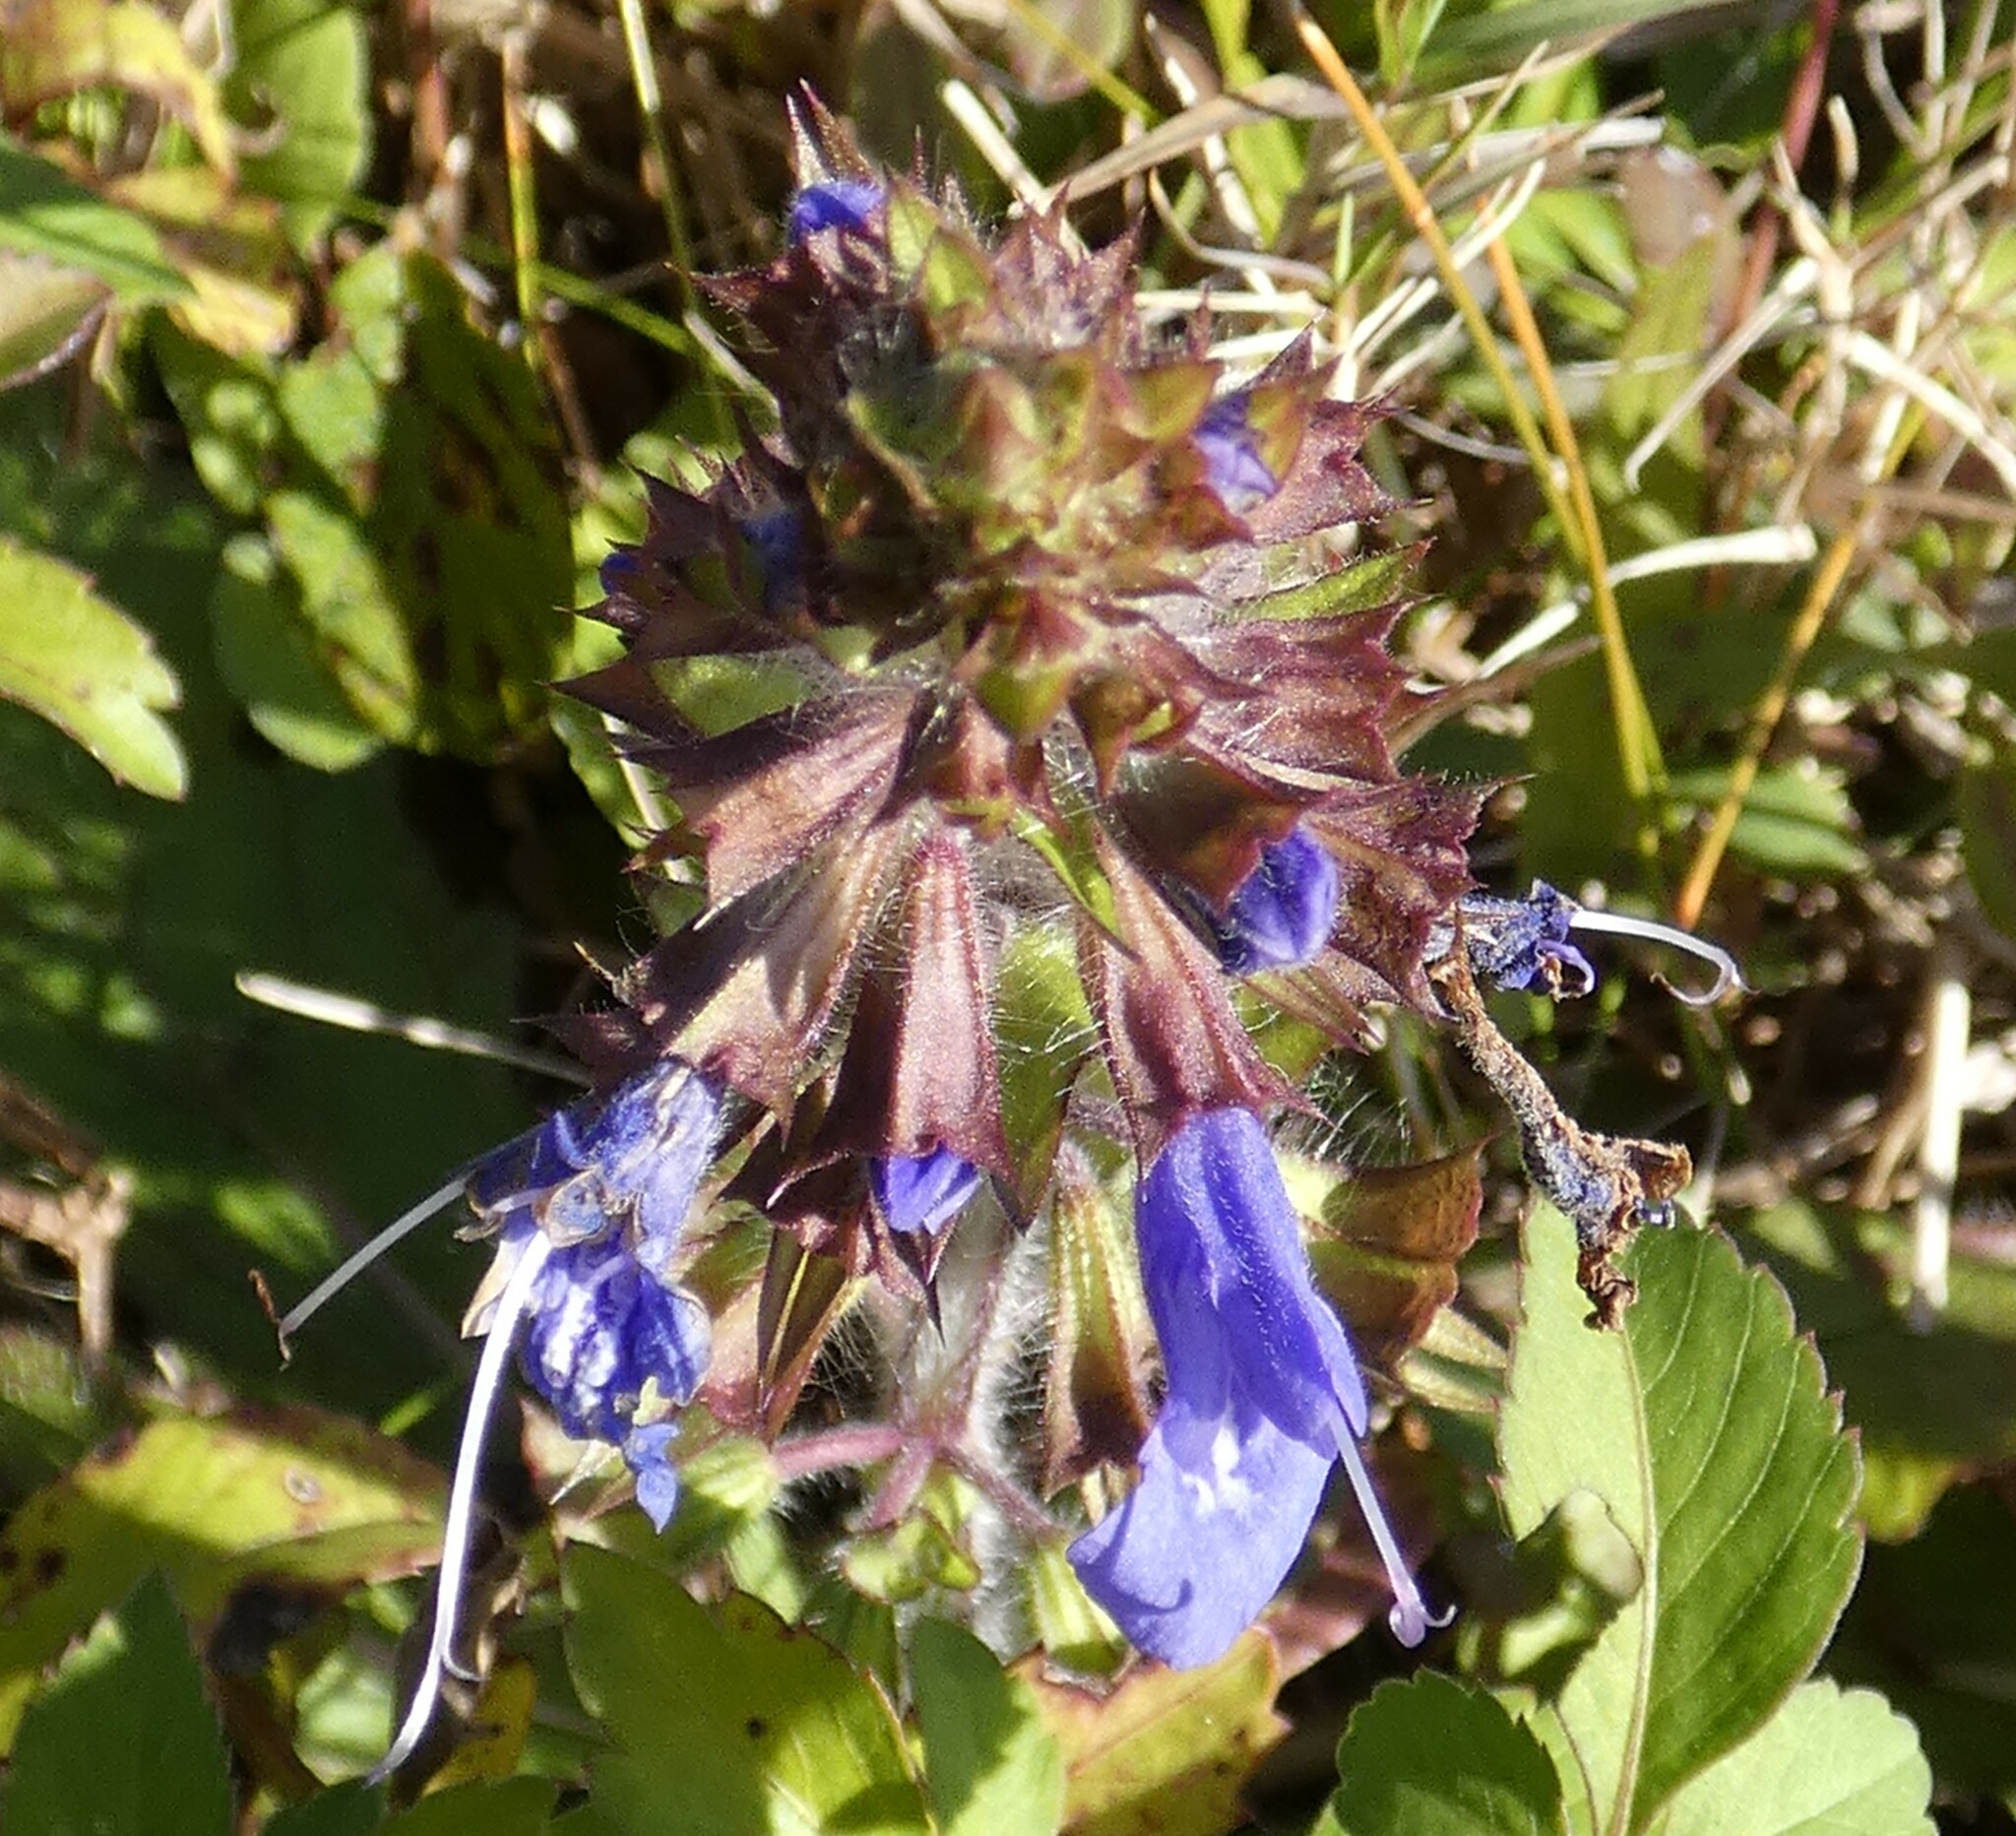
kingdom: Plantae
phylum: Tracheophyta
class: Magnoliopsida
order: Lamiales
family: Lamiaceae
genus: Salvia
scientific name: Salvia lyrata
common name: Cancerweed
